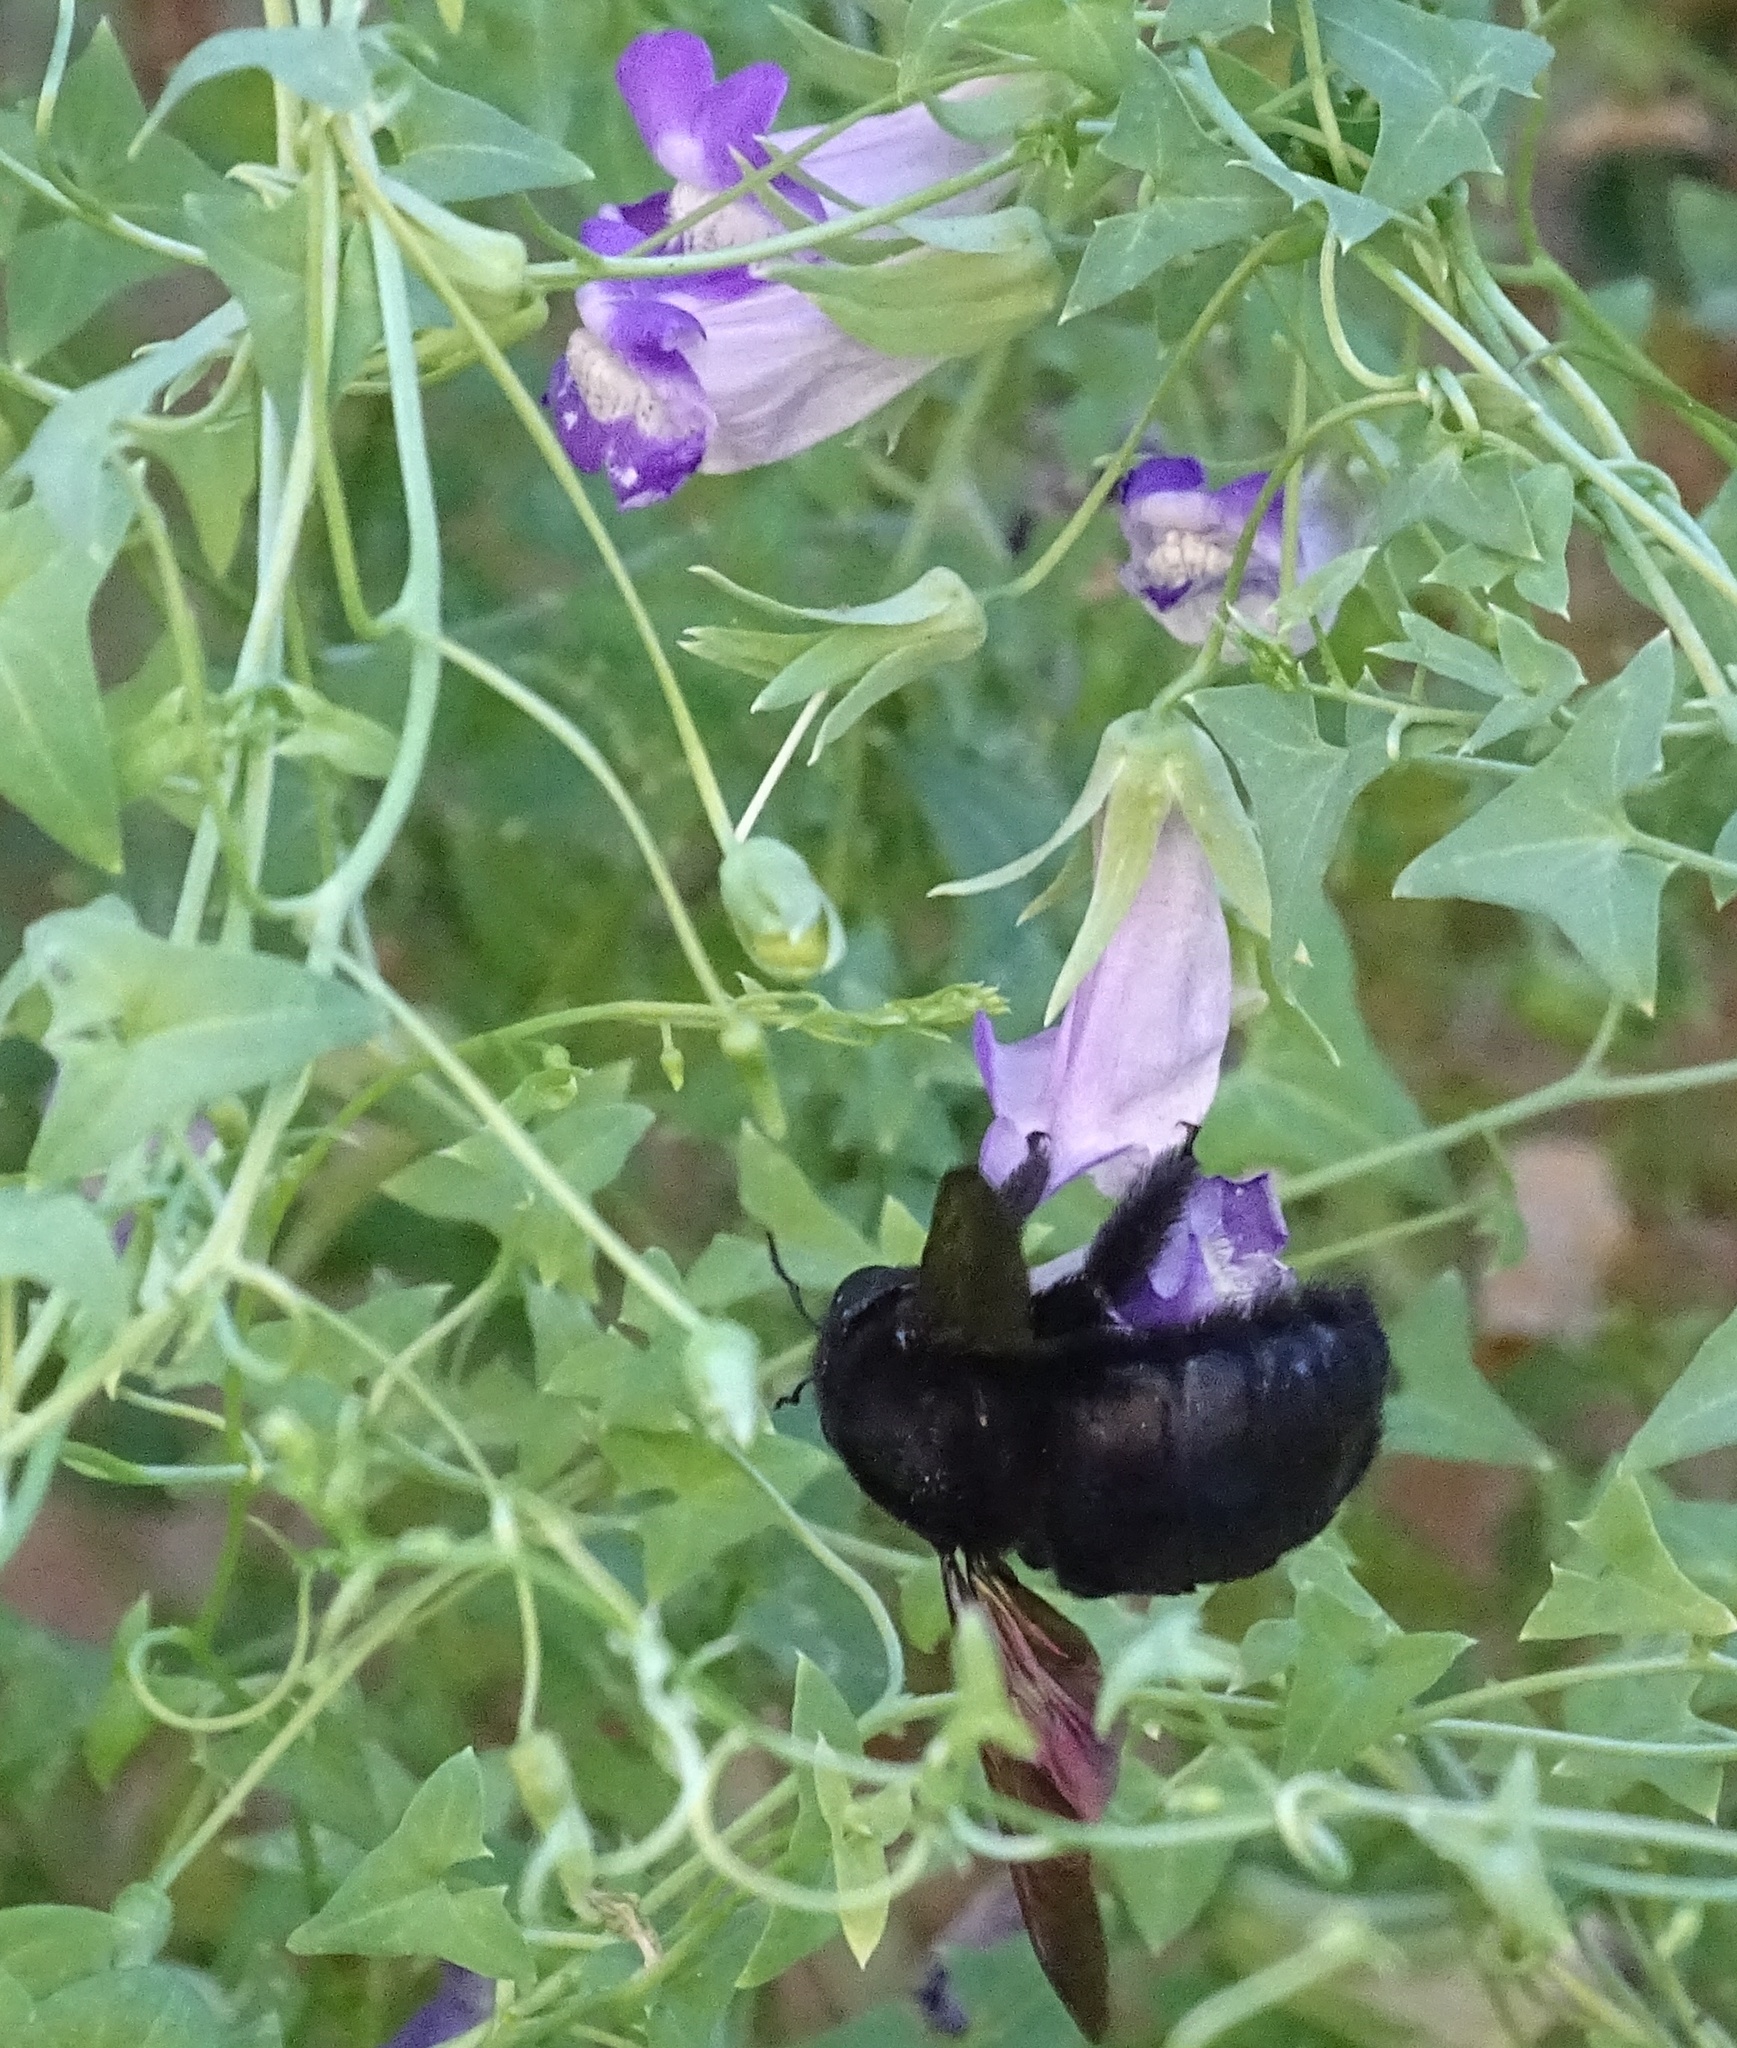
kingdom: Animalia
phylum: Arthropoda
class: Insecta
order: Hymenoptera
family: Apidae
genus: Xylocopa
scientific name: Xylocopa sonorina
